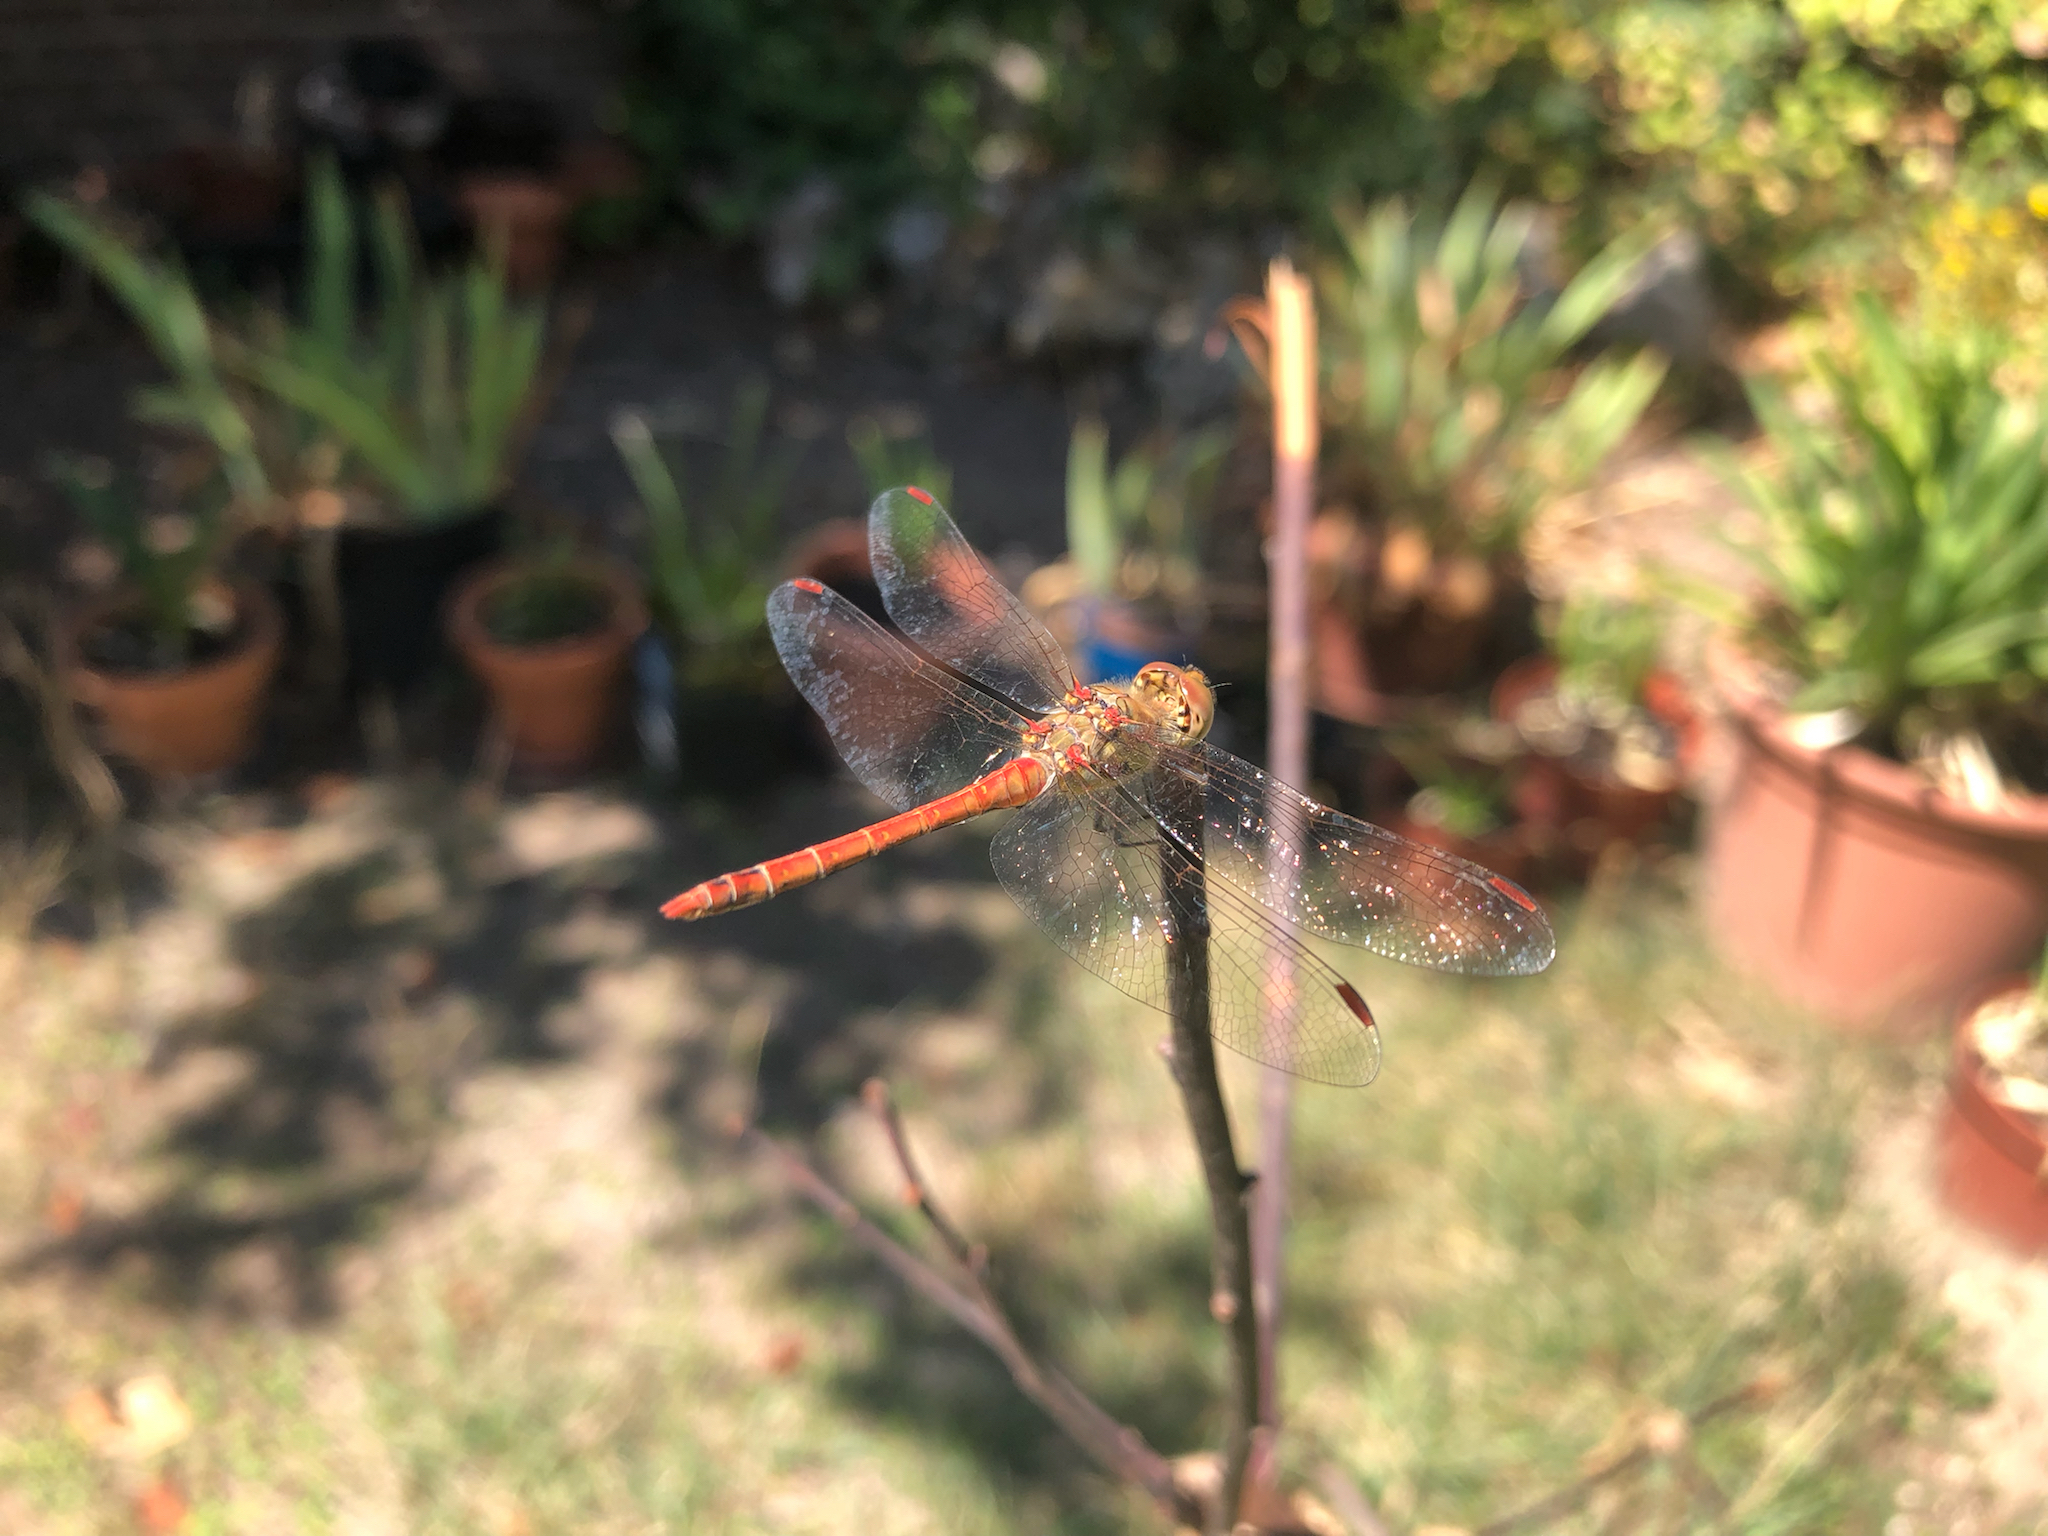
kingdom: Animalia
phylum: Arthropoda
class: Insecta
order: Odonata
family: Libellulidae
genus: Sympetrum
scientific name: Sympetrum striolatum
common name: Common darter
